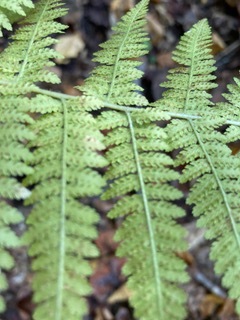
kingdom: Plantae
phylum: Tracheophyta
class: Polypodiopsida
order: Polypodiales
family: Dennstaedtiaceae
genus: Sitobolium
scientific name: Sitobolium punctilobum
